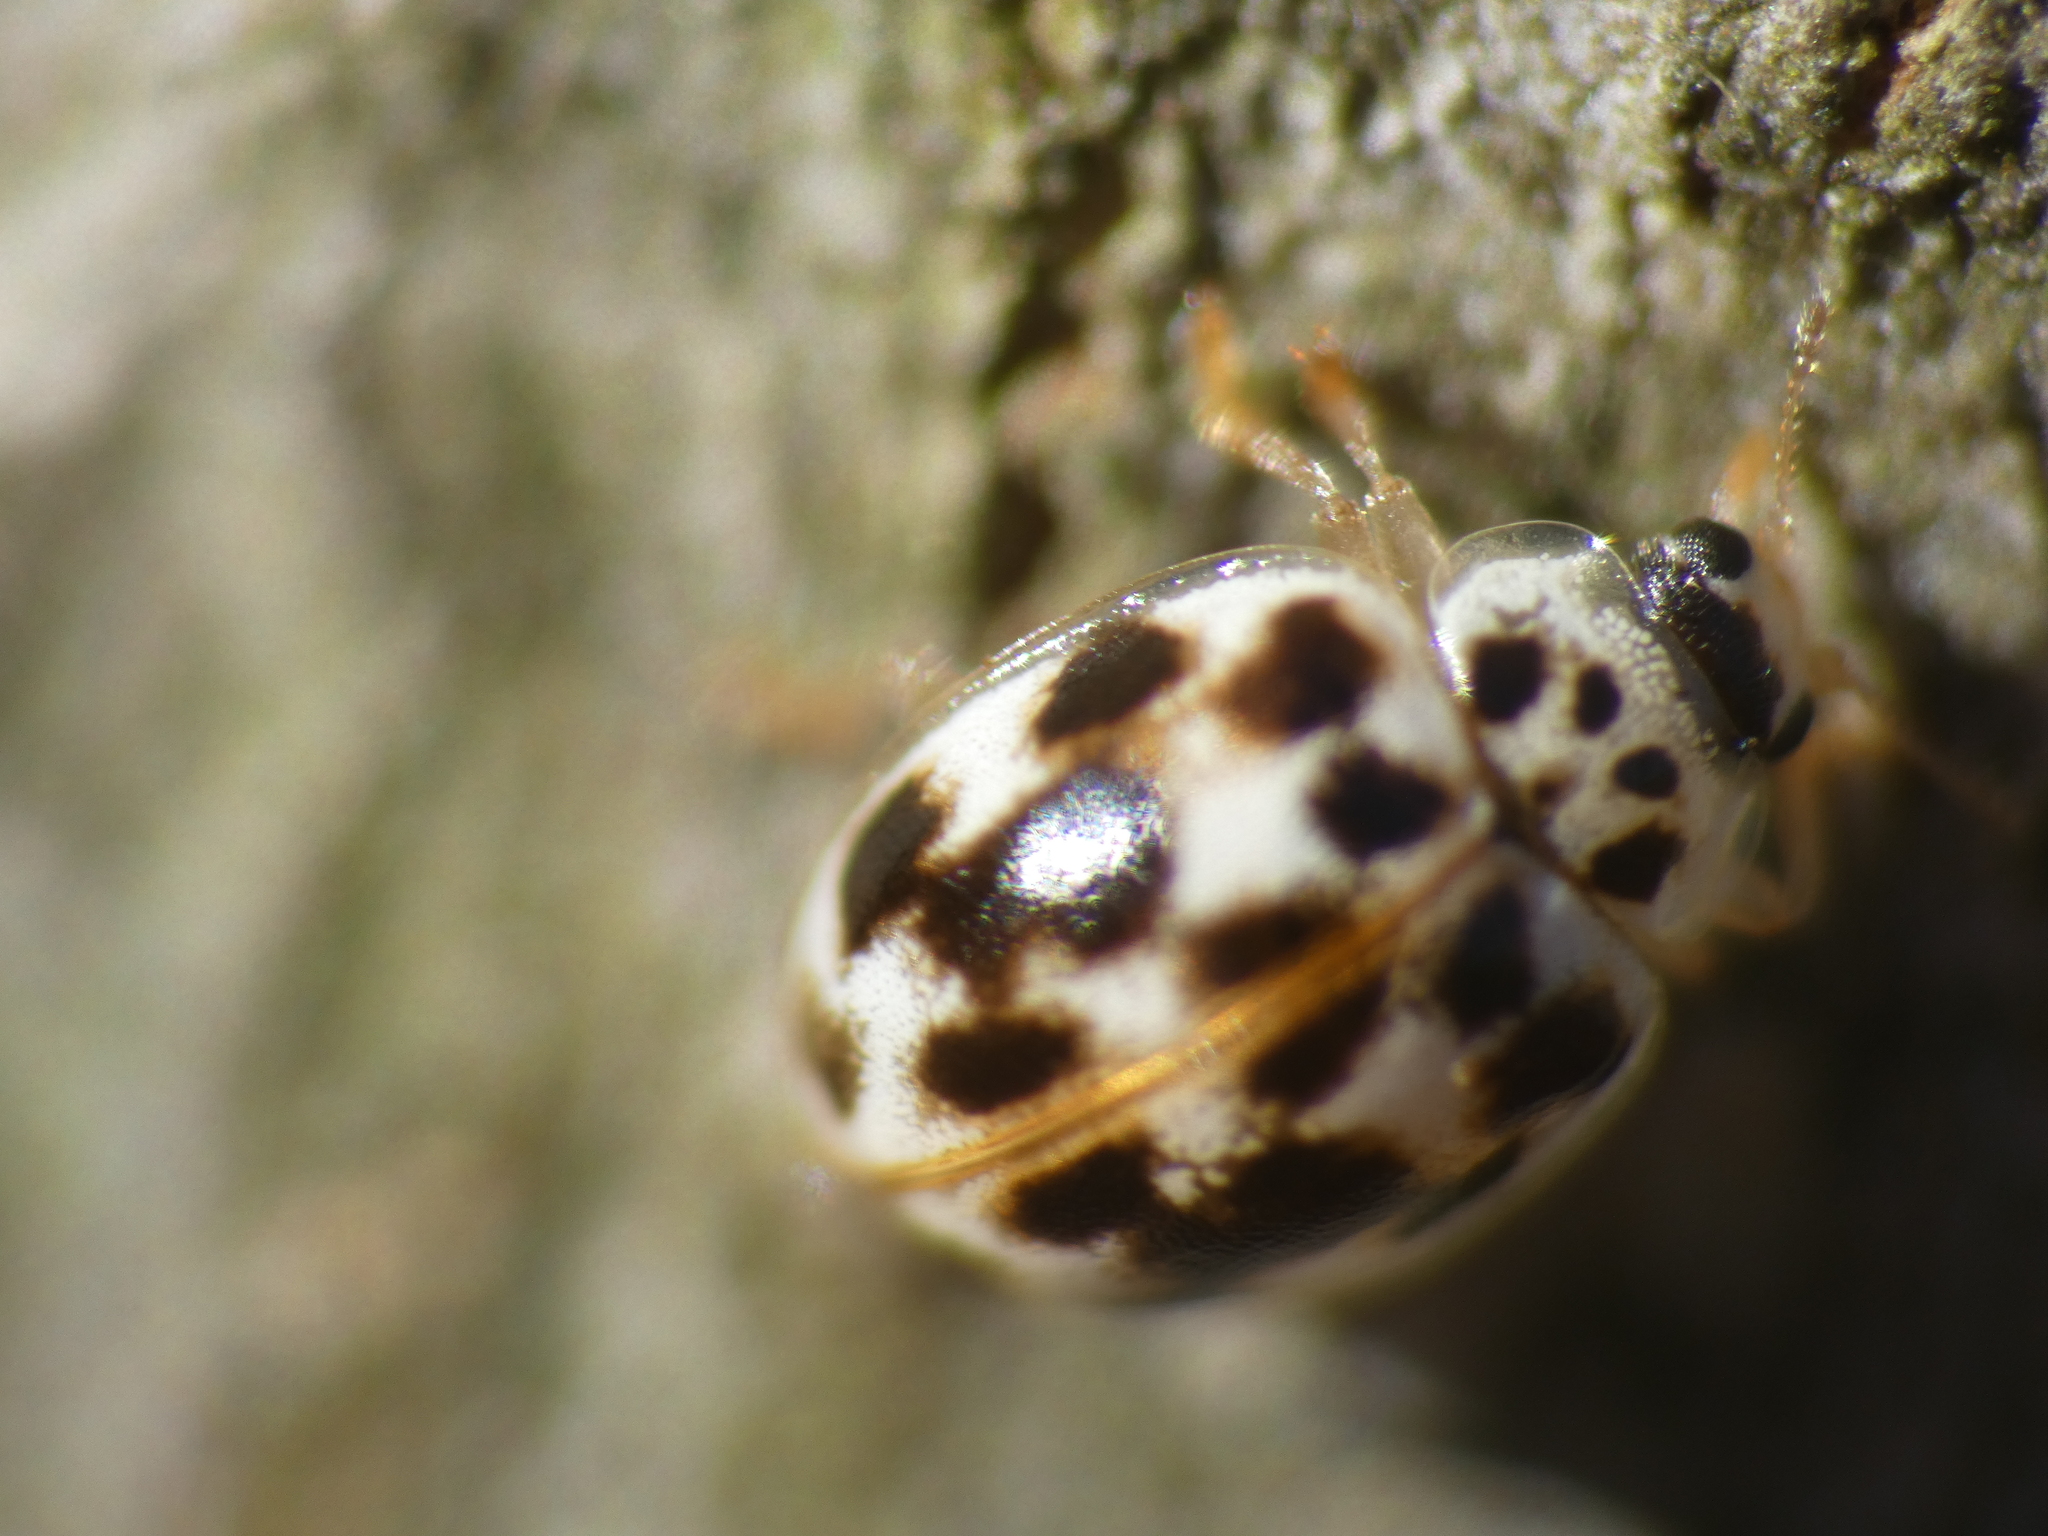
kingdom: Animalia
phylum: Arthropoda
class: Insecta
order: Coleoptera
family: Coccinellidae
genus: Psyllobora
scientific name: Psyllobora vigintimaculata
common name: Ladybird beetle
